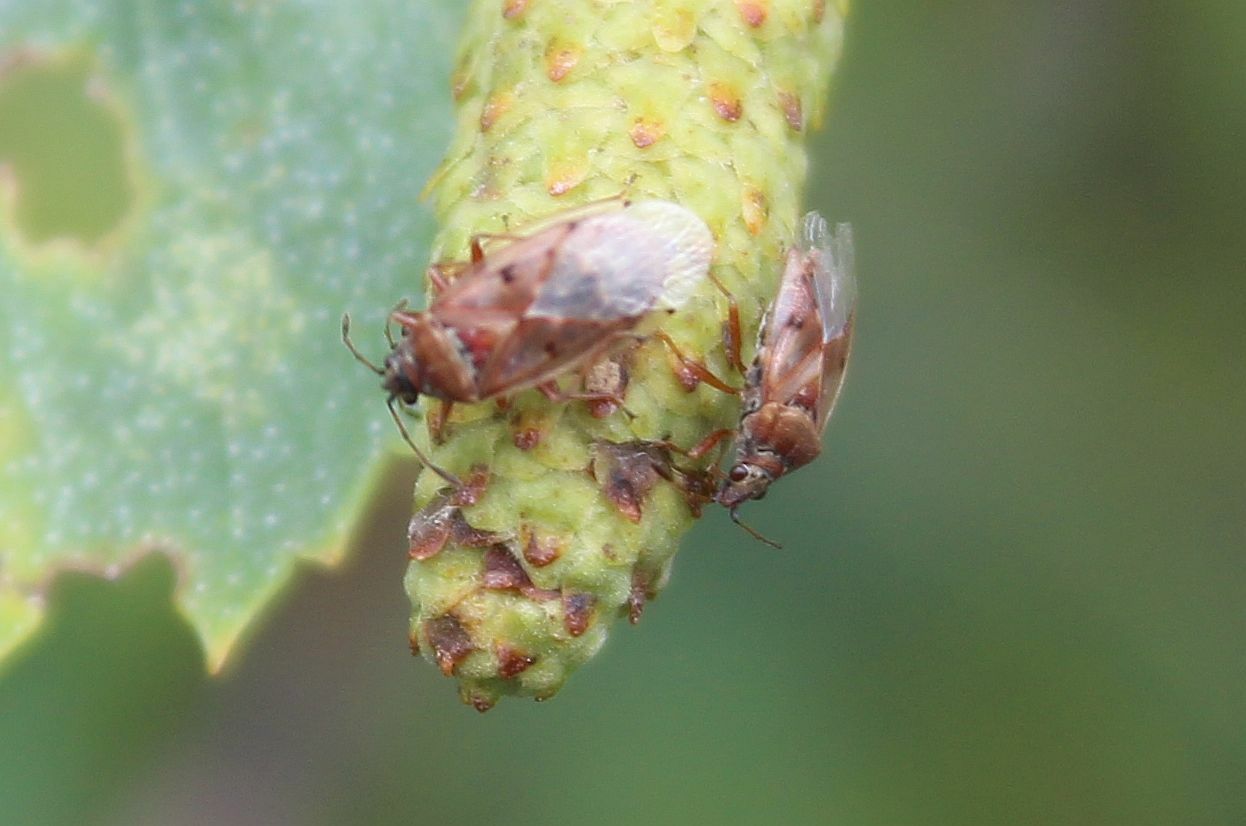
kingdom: Animalia
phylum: Arthropoda
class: Insecta
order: Hemiptera
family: Lygaeidae
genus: Kleidocerys
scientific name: Kleidocerys resedae
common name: Birch catkin bug
